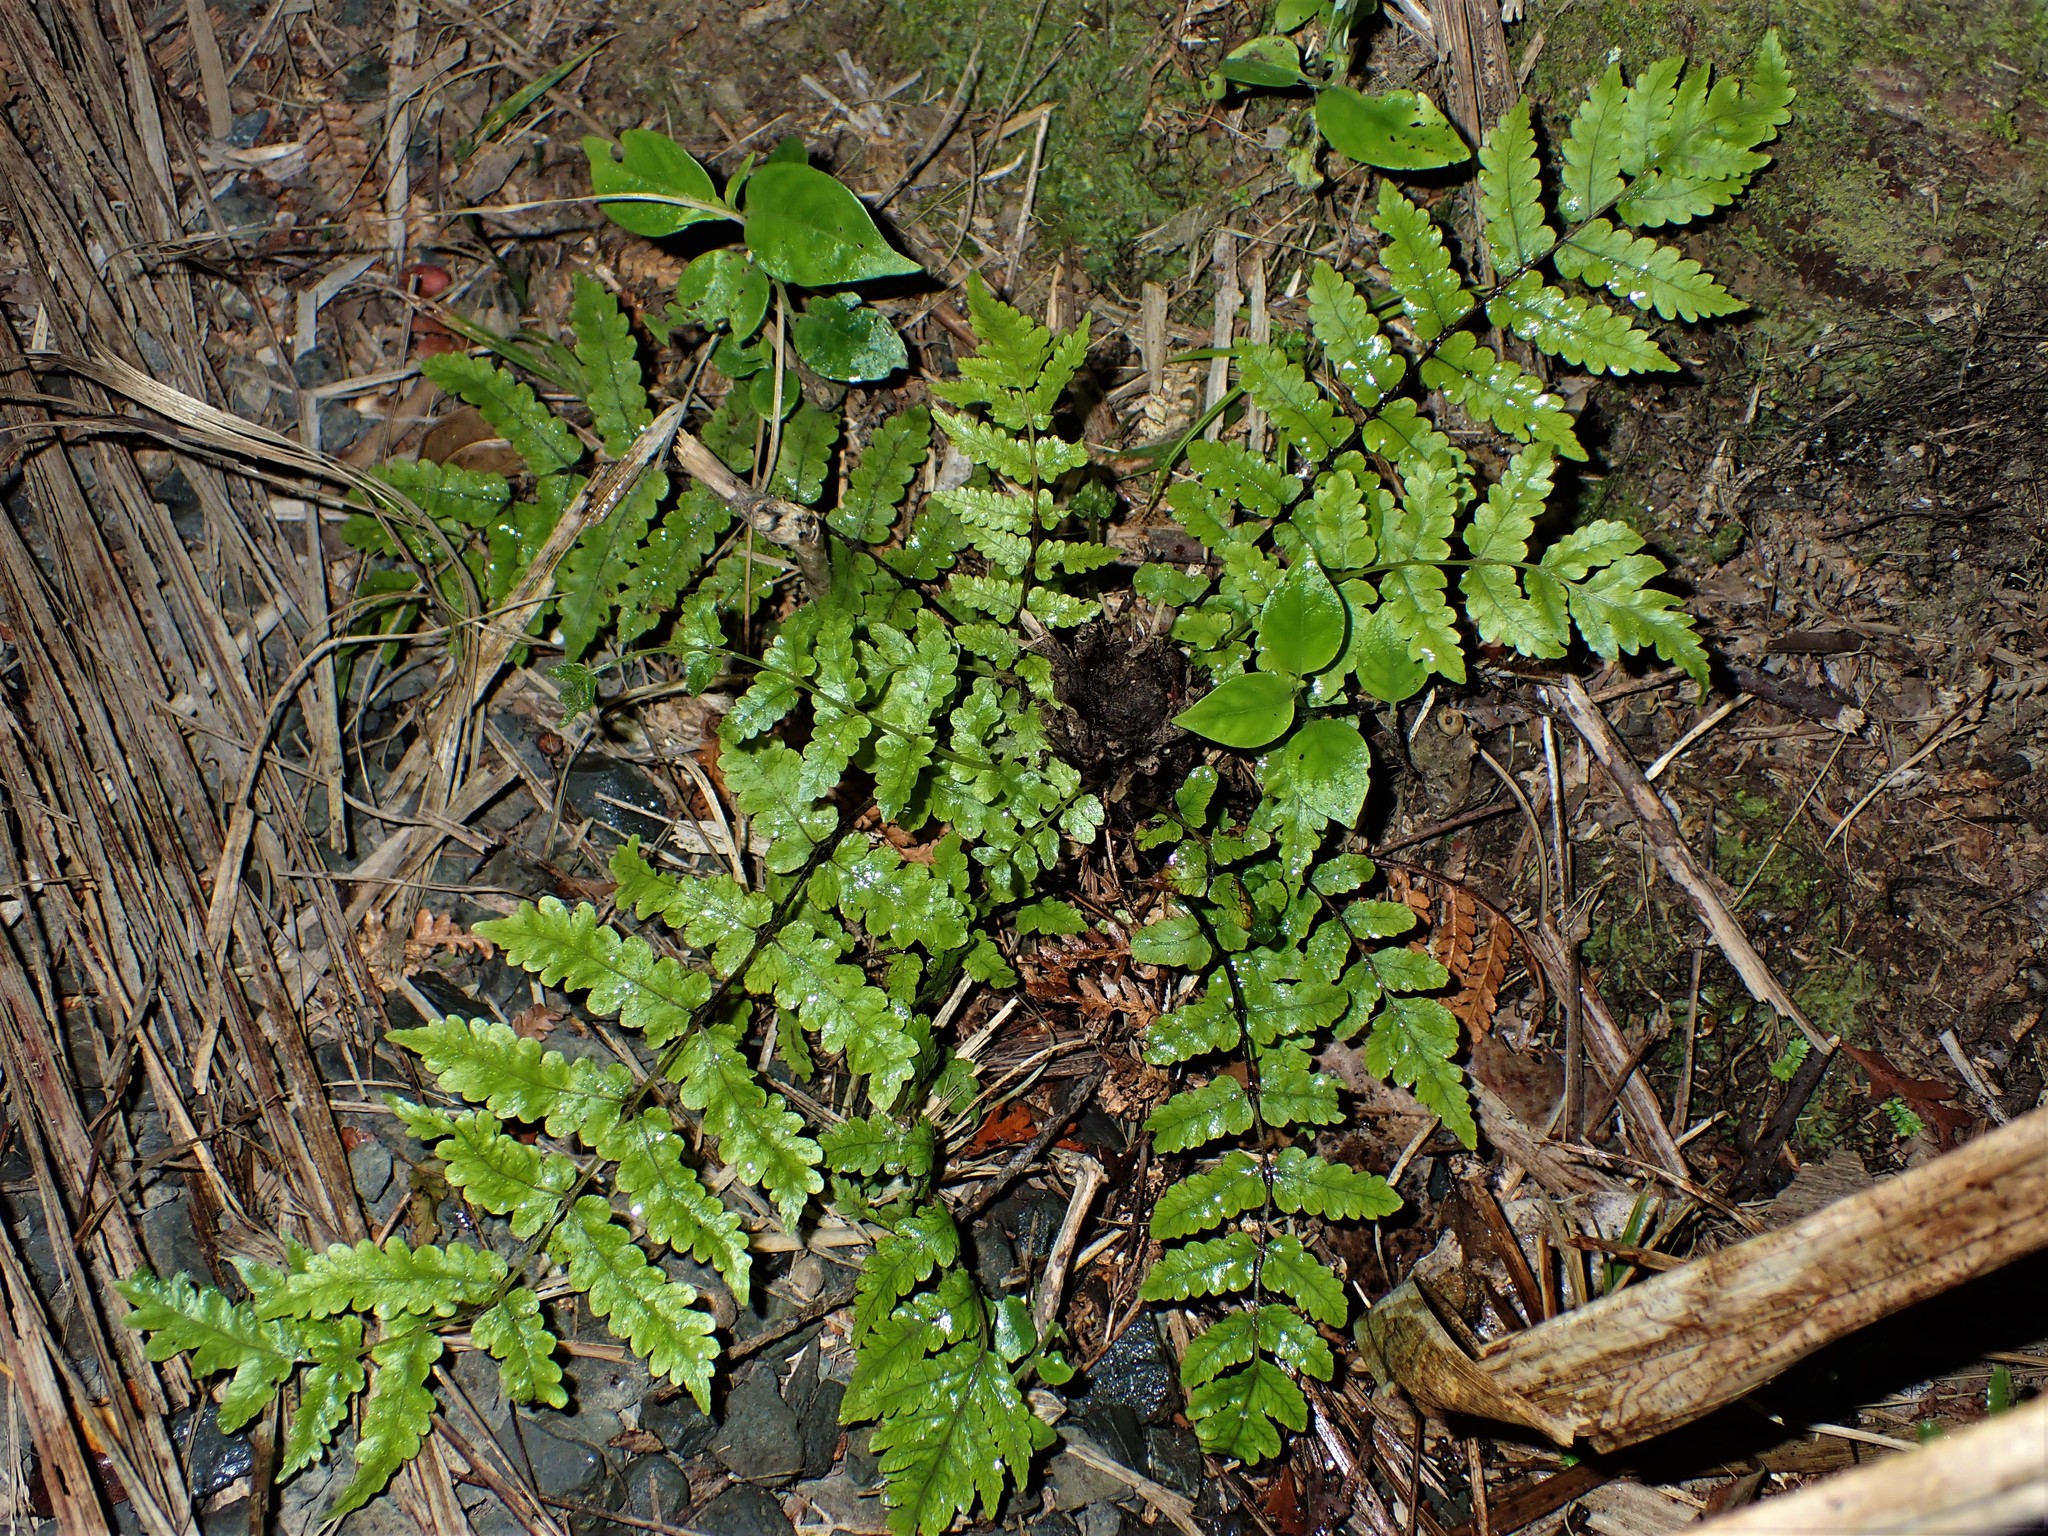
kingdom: Plantae
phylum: Tracheophyta
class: Polypodiopsida
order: Polypodiales
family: Thelypteridaceae
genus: Pakau
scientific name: Pakau pennigera
